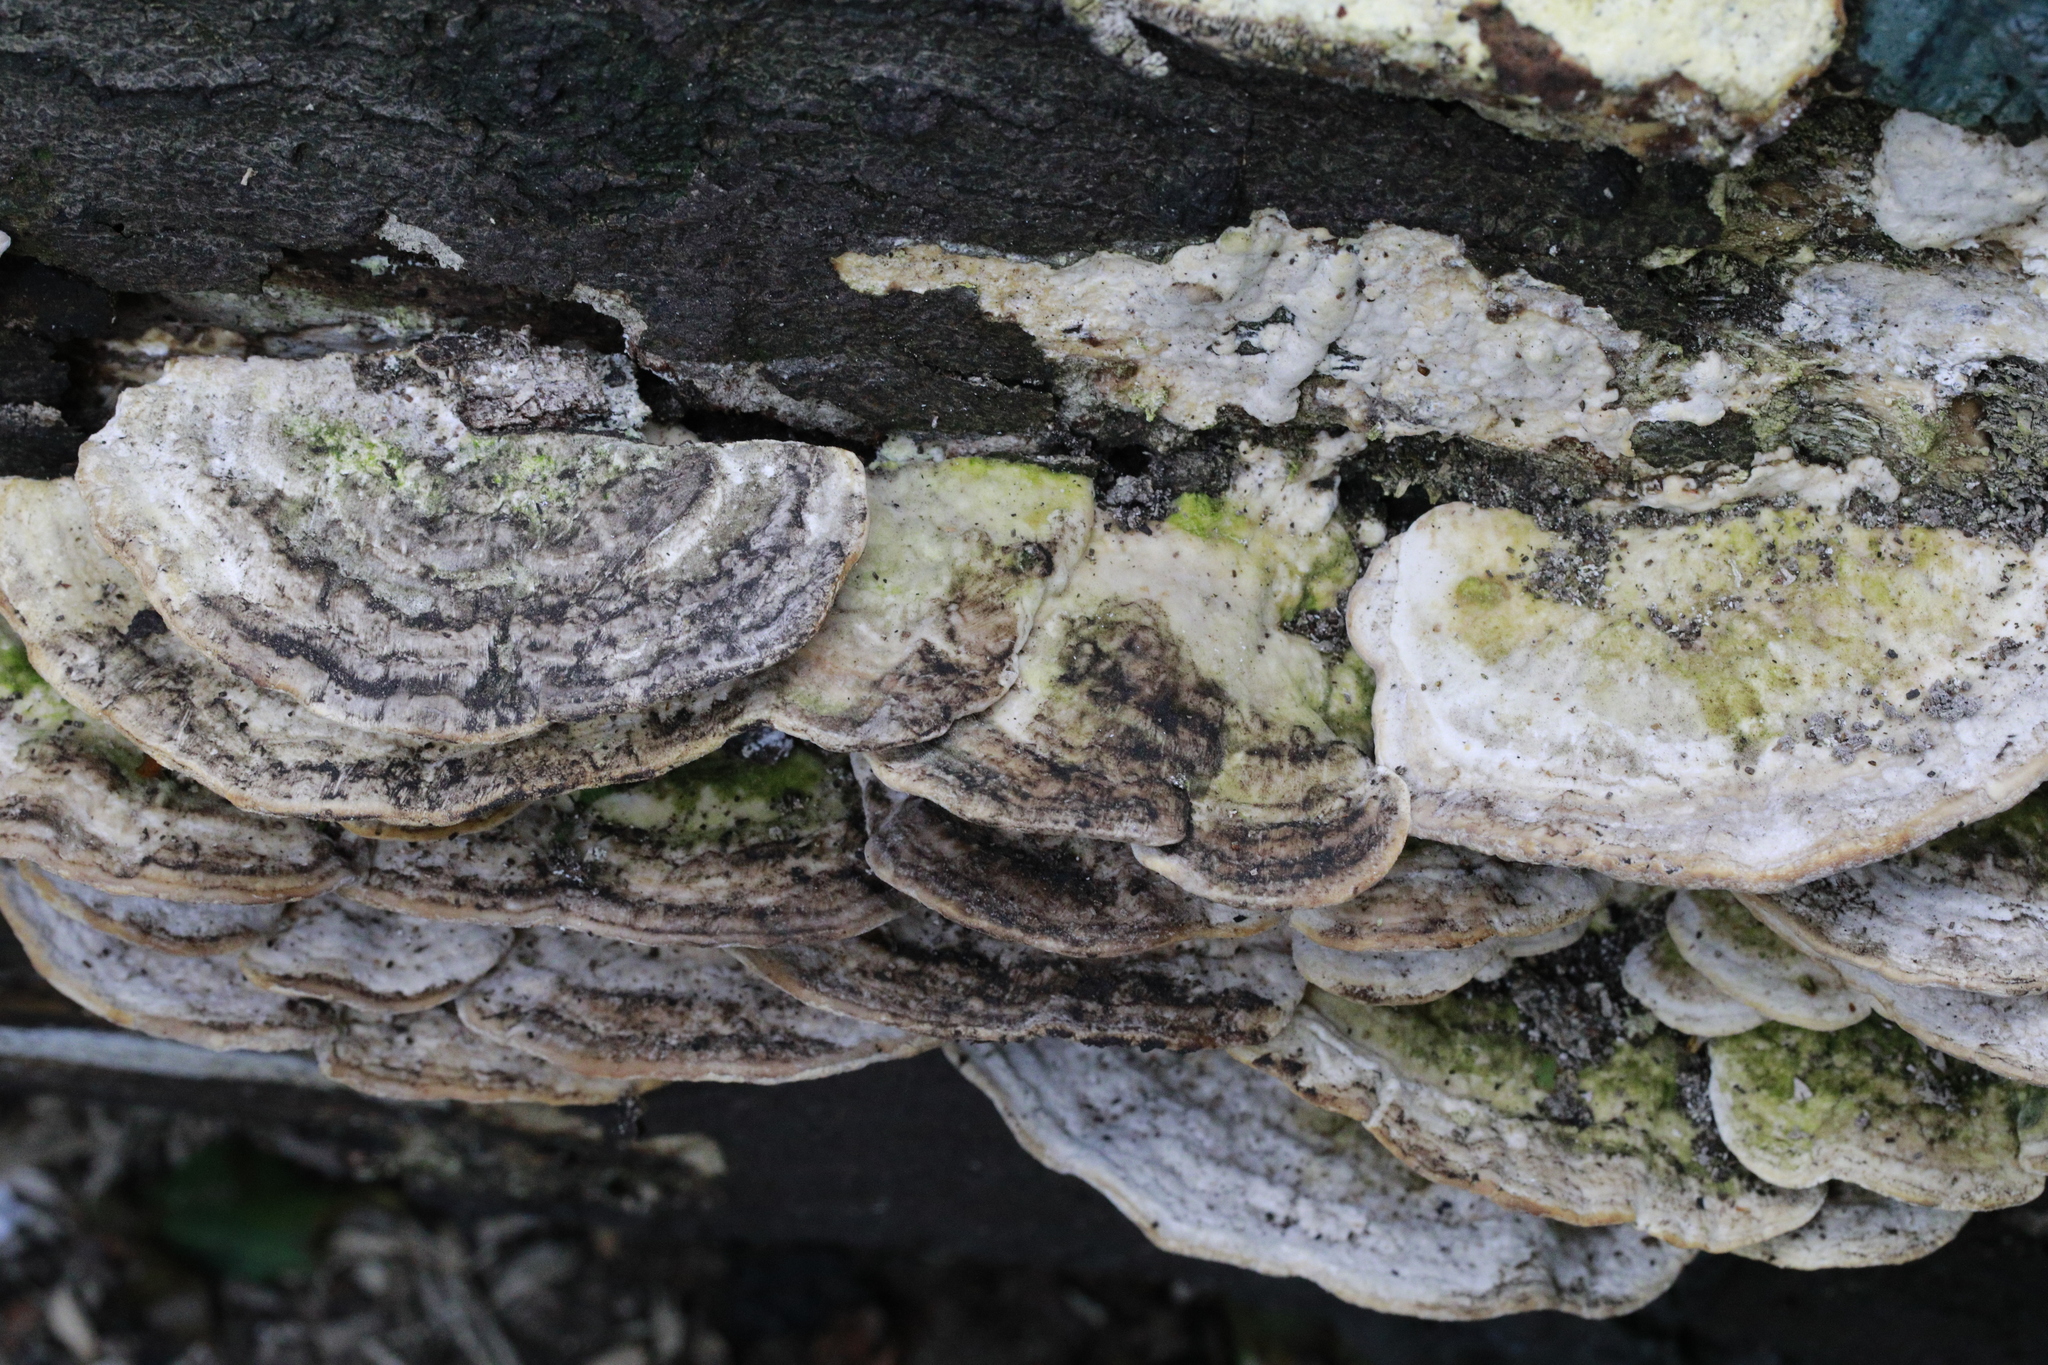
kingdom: Fungi
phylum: Basidiomycota
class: Agaricomycetes
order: Polyporales
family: Polyporaceae
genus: Trametes
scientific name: Trametes gibbosa
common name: Lumpy bracket
